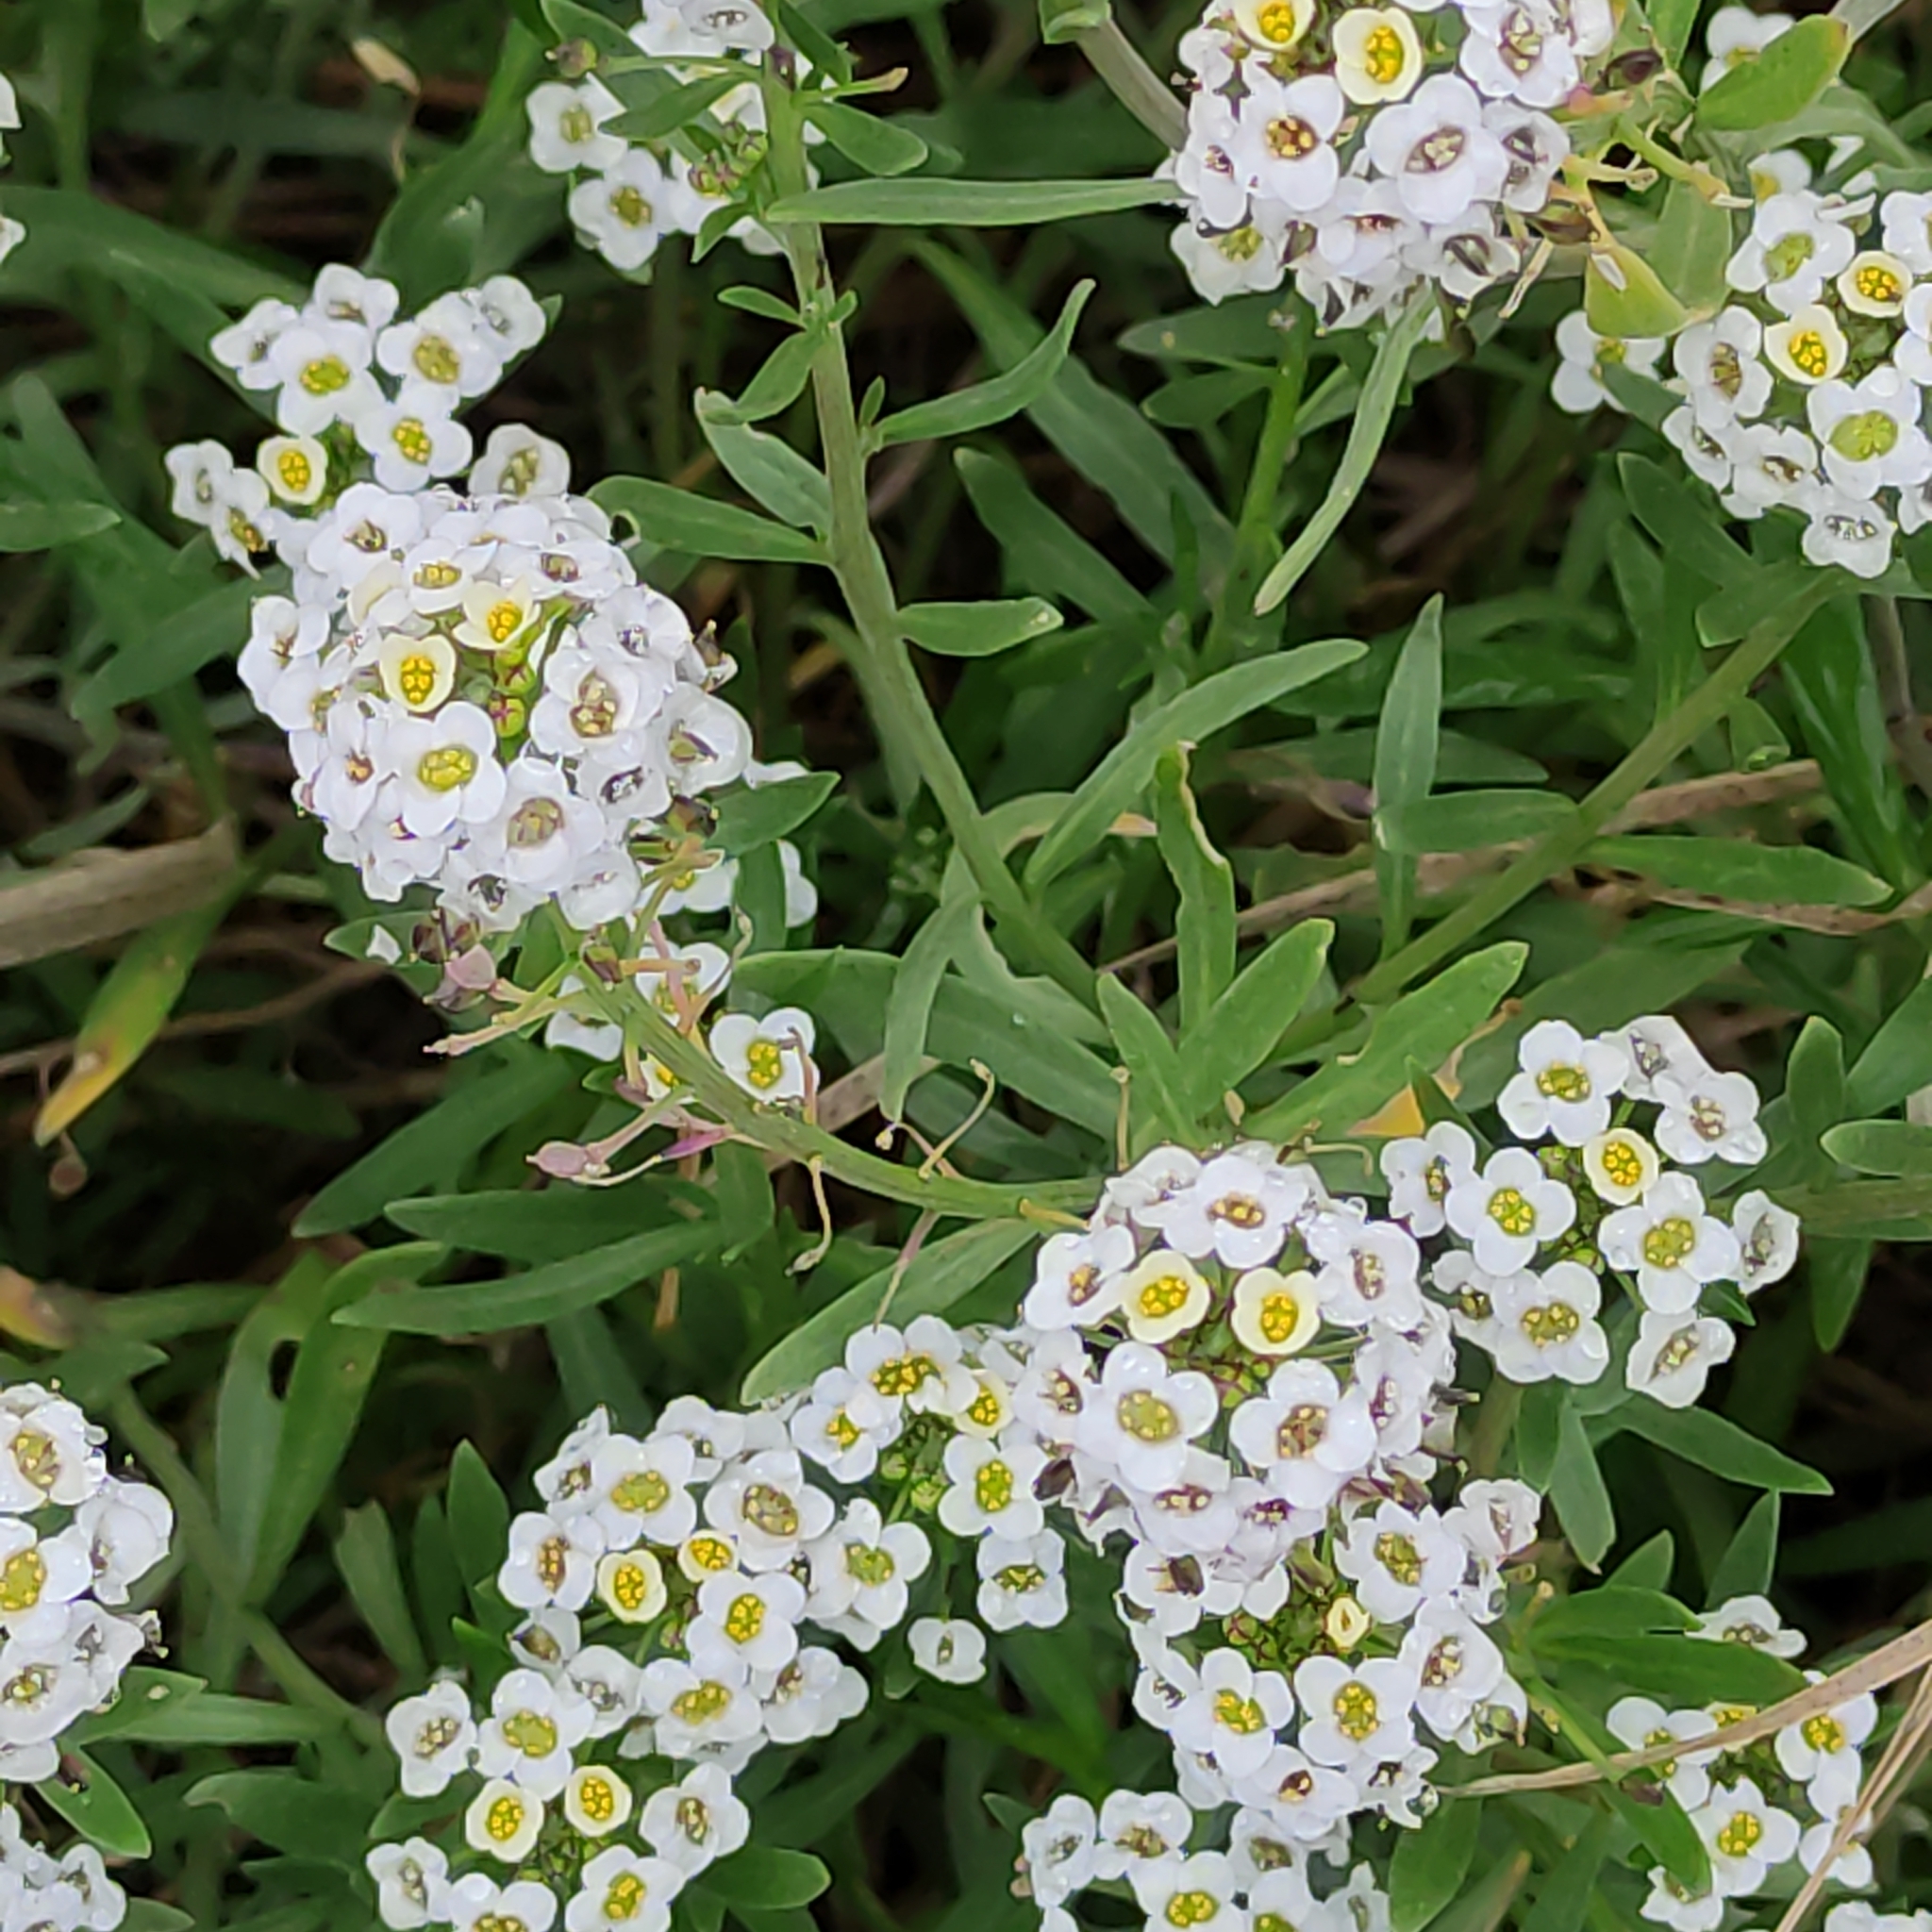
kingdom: Plantae
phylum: Tracheophyta
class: Magnoliopsida
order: Brassicales
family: Brassicaceae
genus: Lobularia
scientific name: Lobularia maritima
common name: Sweet alison
